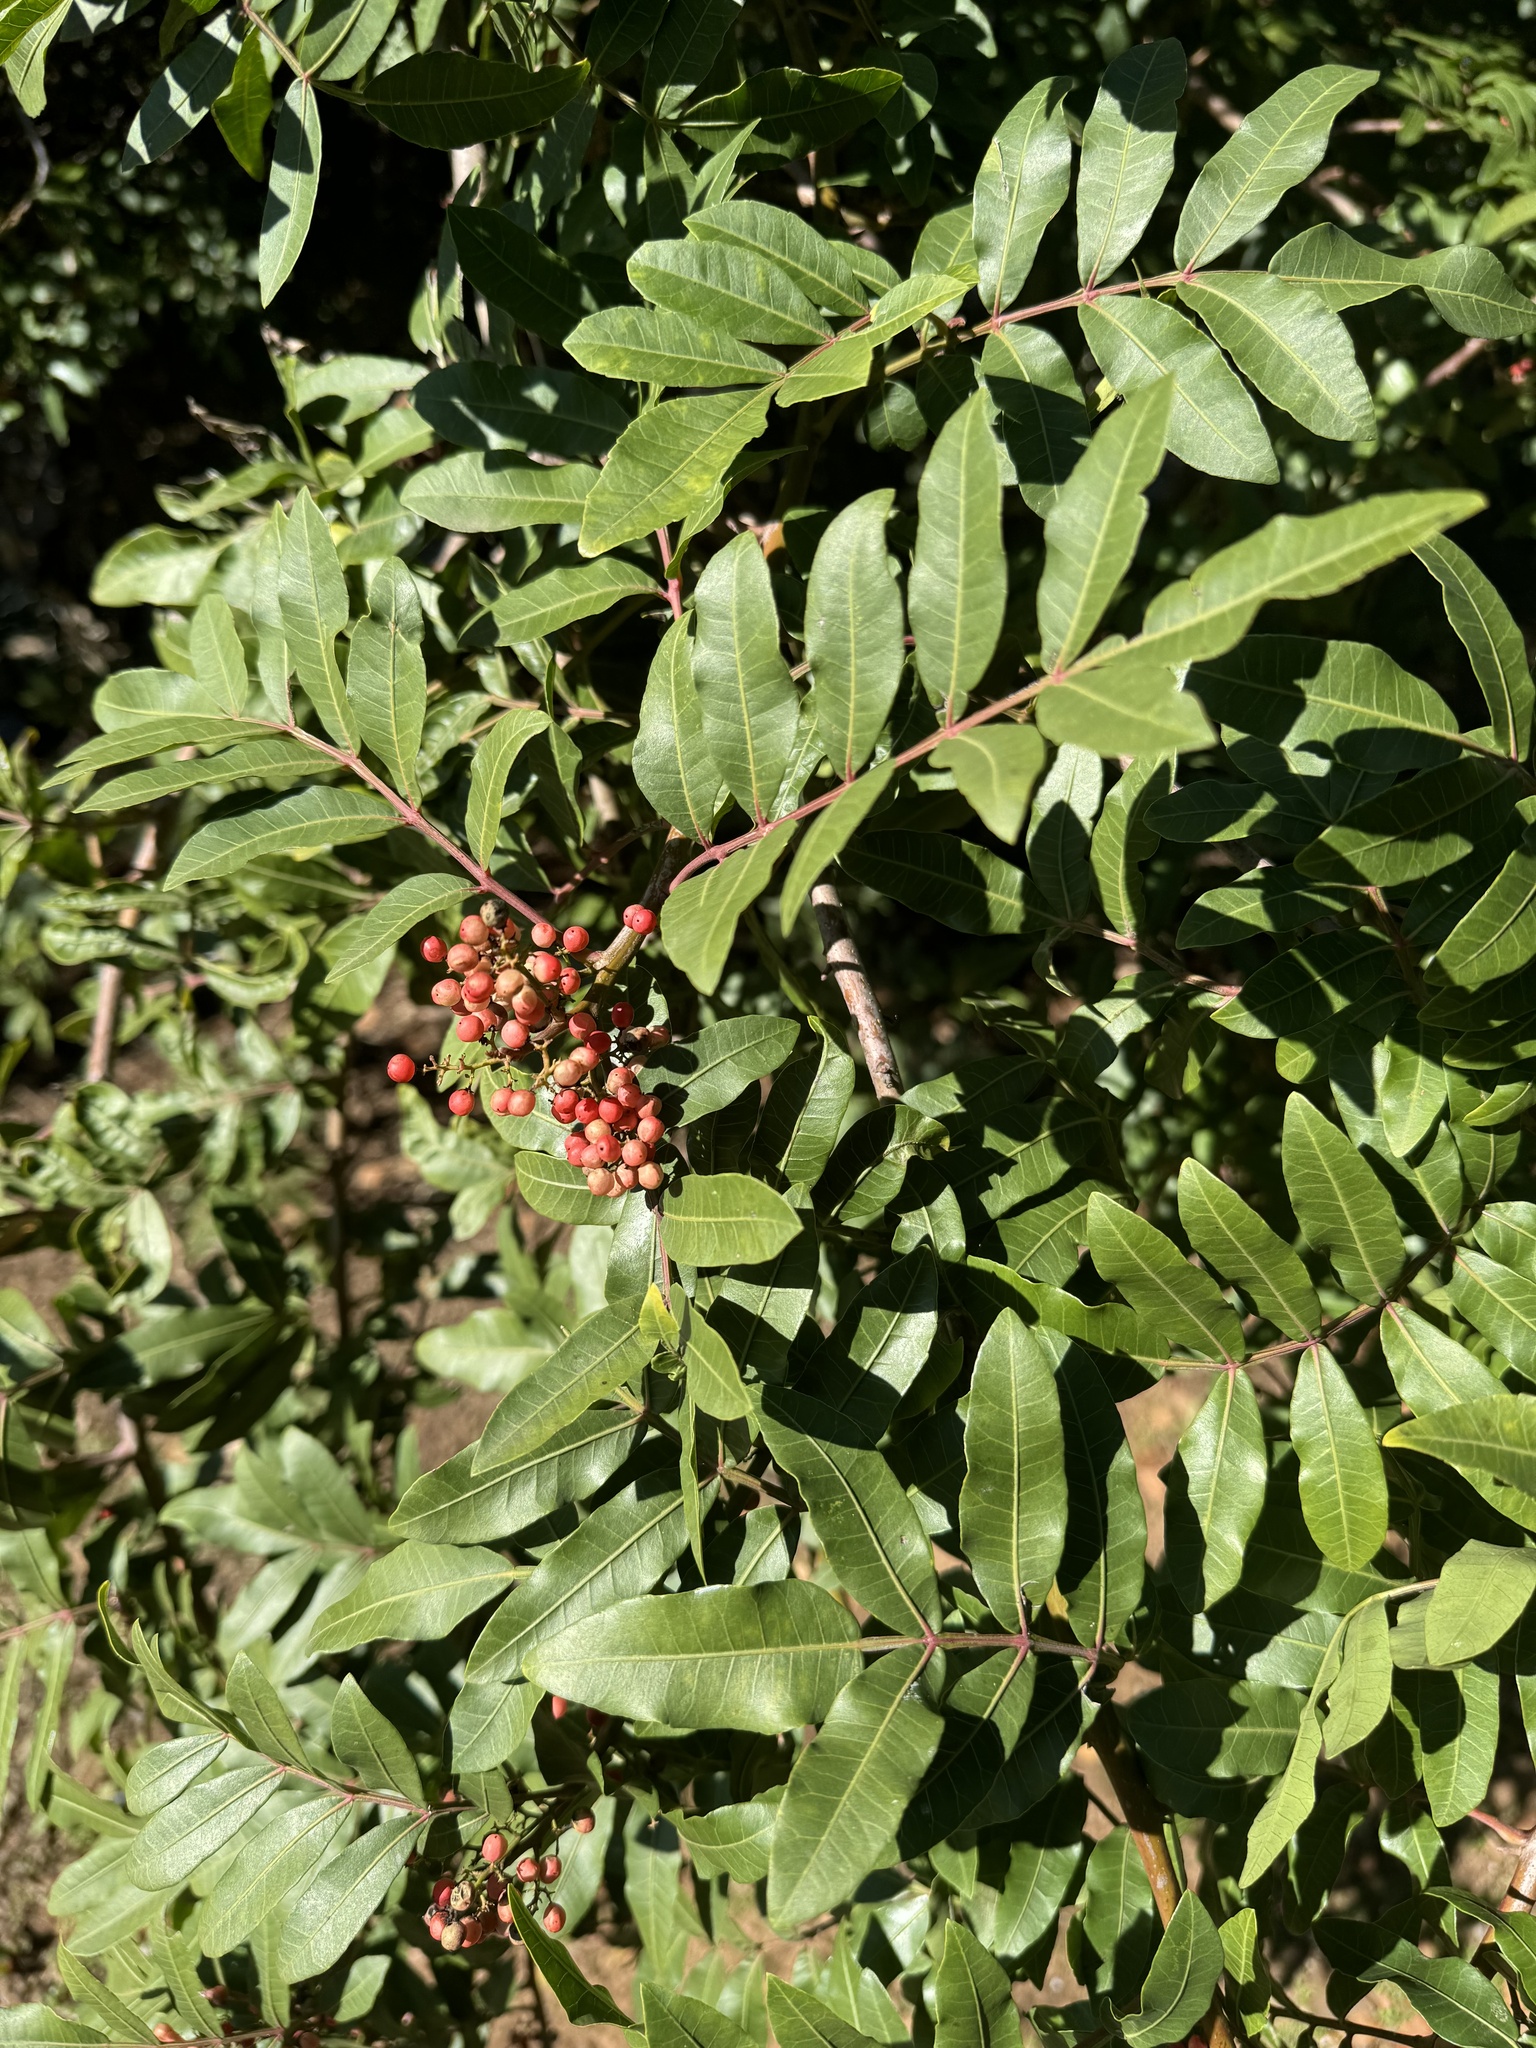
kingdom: Plantae
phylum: Tracheophyta
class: Magnoliopsida
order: Sapindales
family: Anacardiaceae
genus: Schinus
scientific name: Schinus terebinthifolia
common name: Brazilian peppertree
